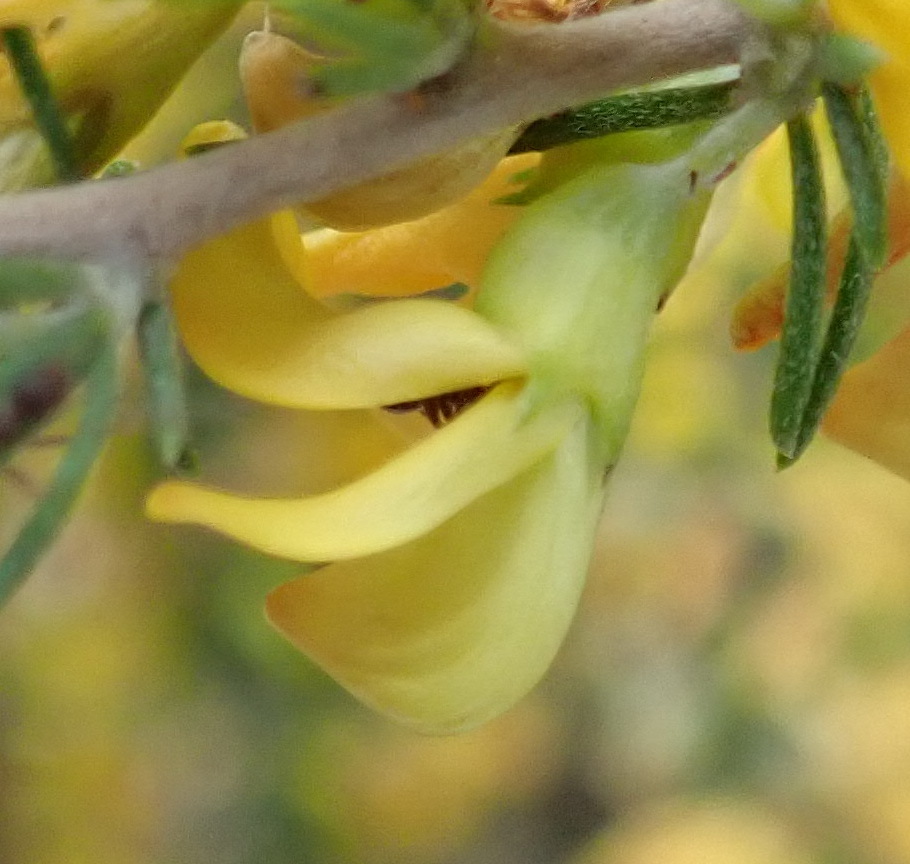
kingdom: Plantae
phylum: Tracheophyta
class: Magnoliopsida
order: Fabales
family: Fabaceae
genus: Aspalathus
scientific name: Aspalathus spinosa
